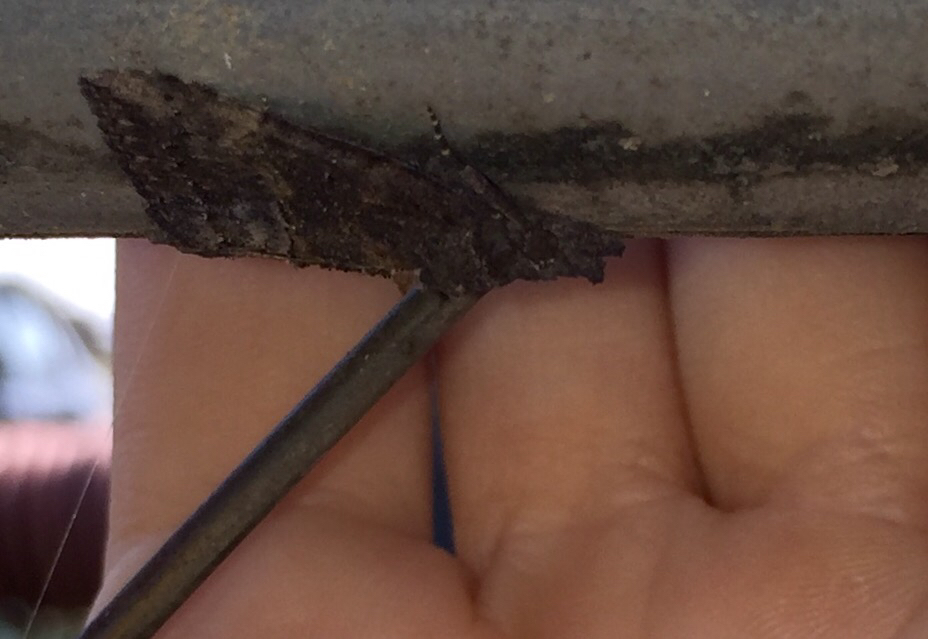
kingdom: Animalia
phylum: Arthropoda
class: Insecta
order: Lepidoptera
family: Erebidae
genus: Hypena
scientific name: Hypena scabra
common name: Green cloverworm
